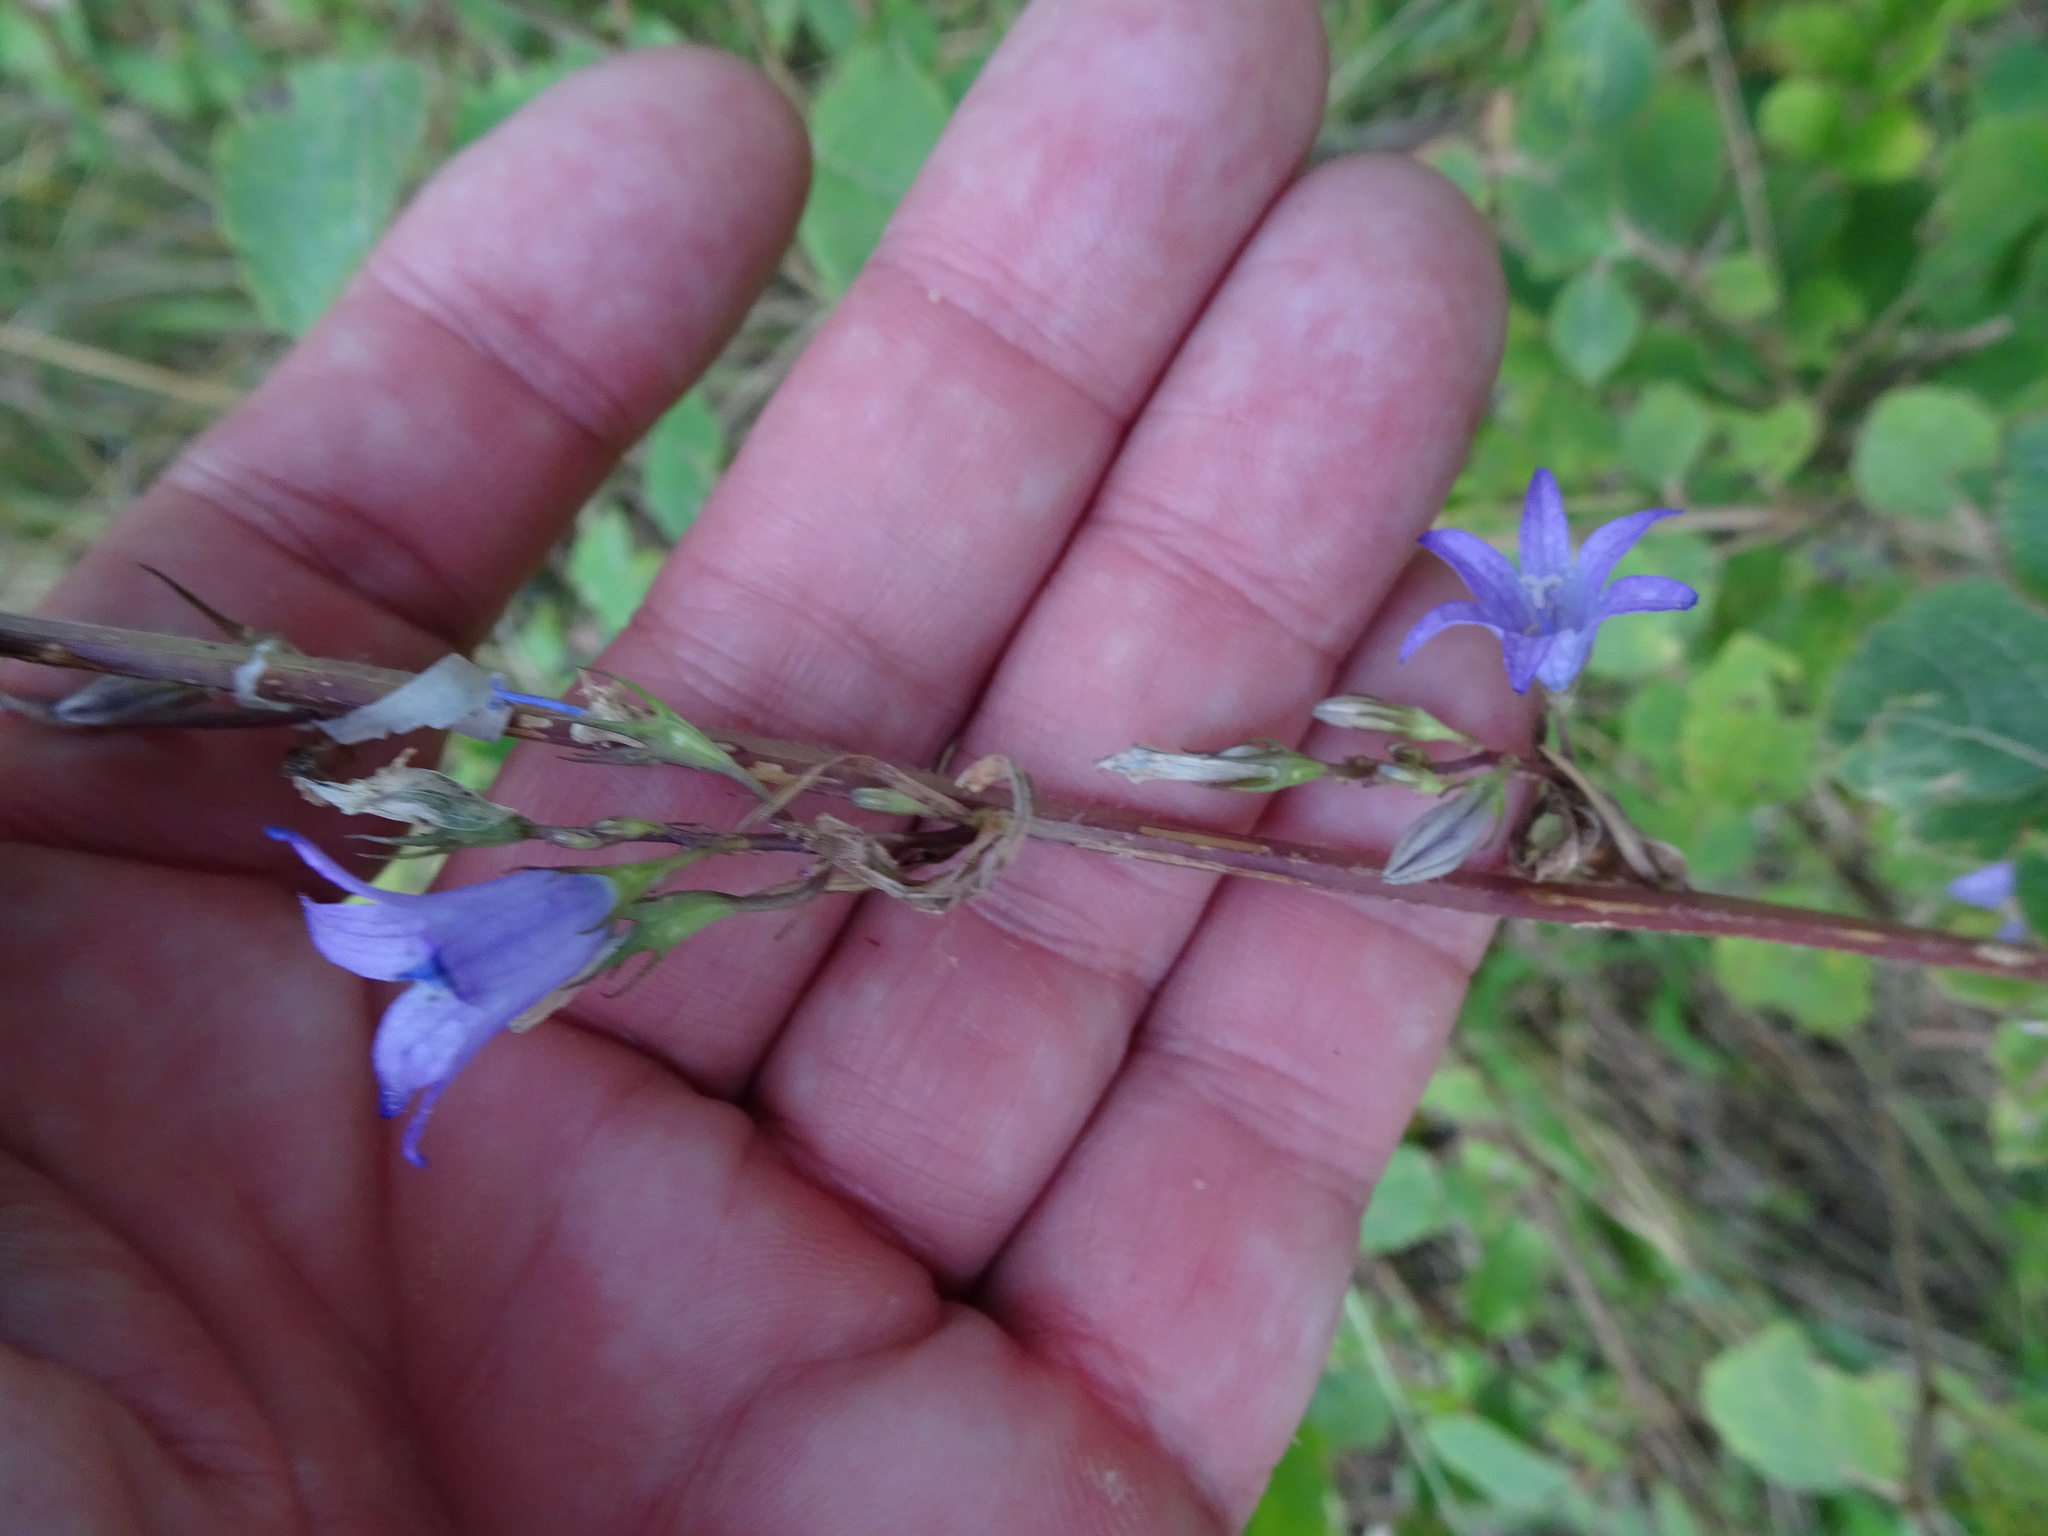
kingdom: Plantae
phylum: Tracheophyta
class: Magnoliopsida
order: Asterales
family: Campanulaceae
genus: Campanula
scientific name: Campanula rapunculus
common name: Rampion bellflower
